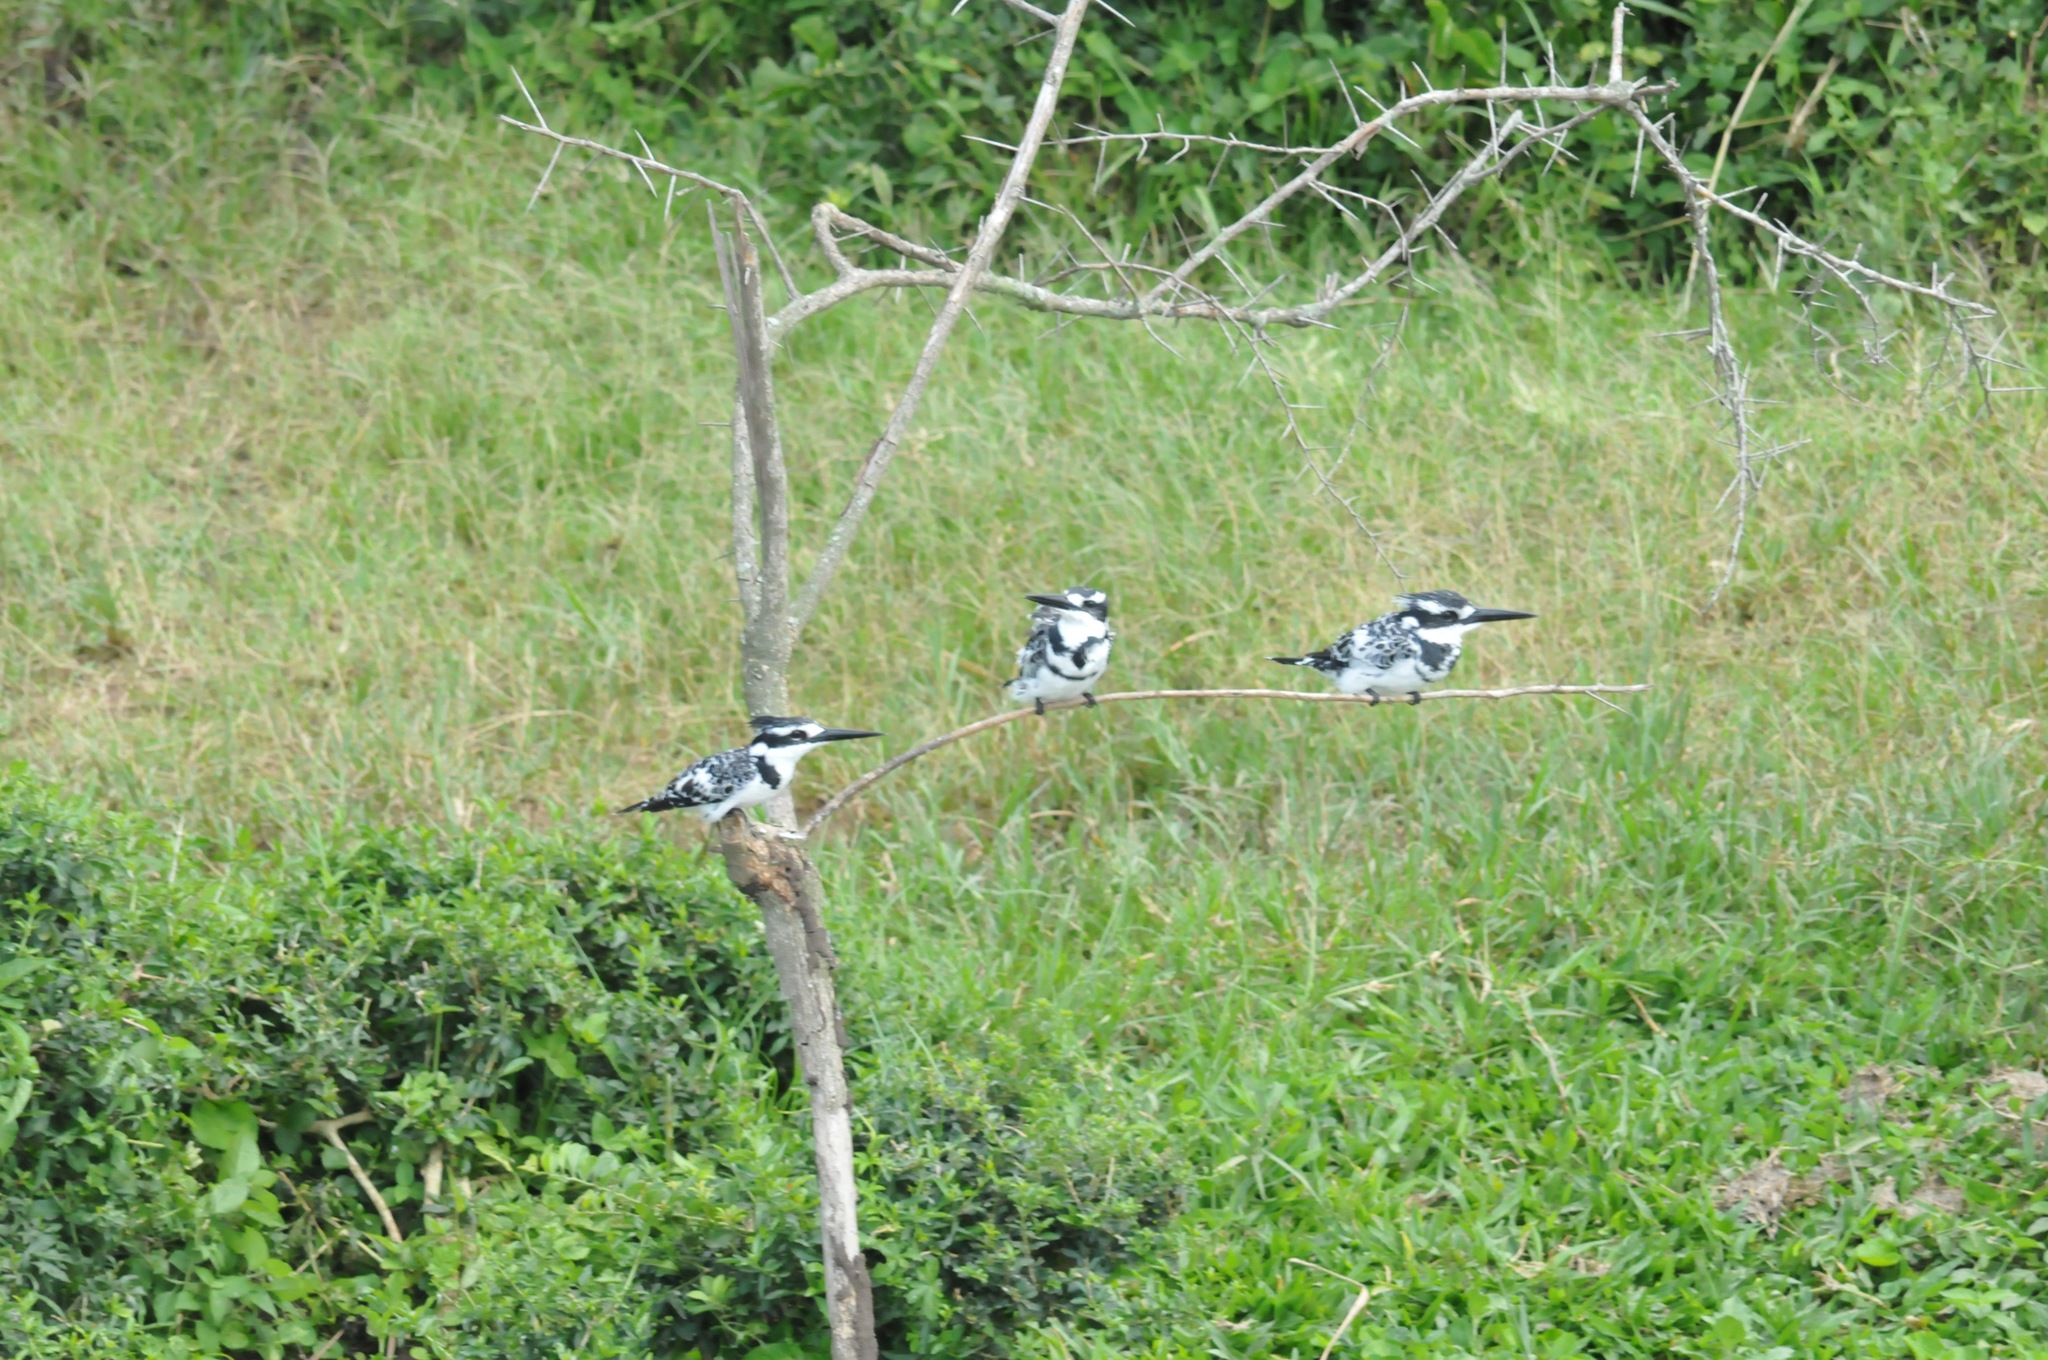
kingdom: Animalia
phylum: Chordata
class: Aves
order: Coraciiformes
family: Alcedinidae
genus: Ceryle
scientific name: Ceryle rudis
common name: Pied kingfisher
